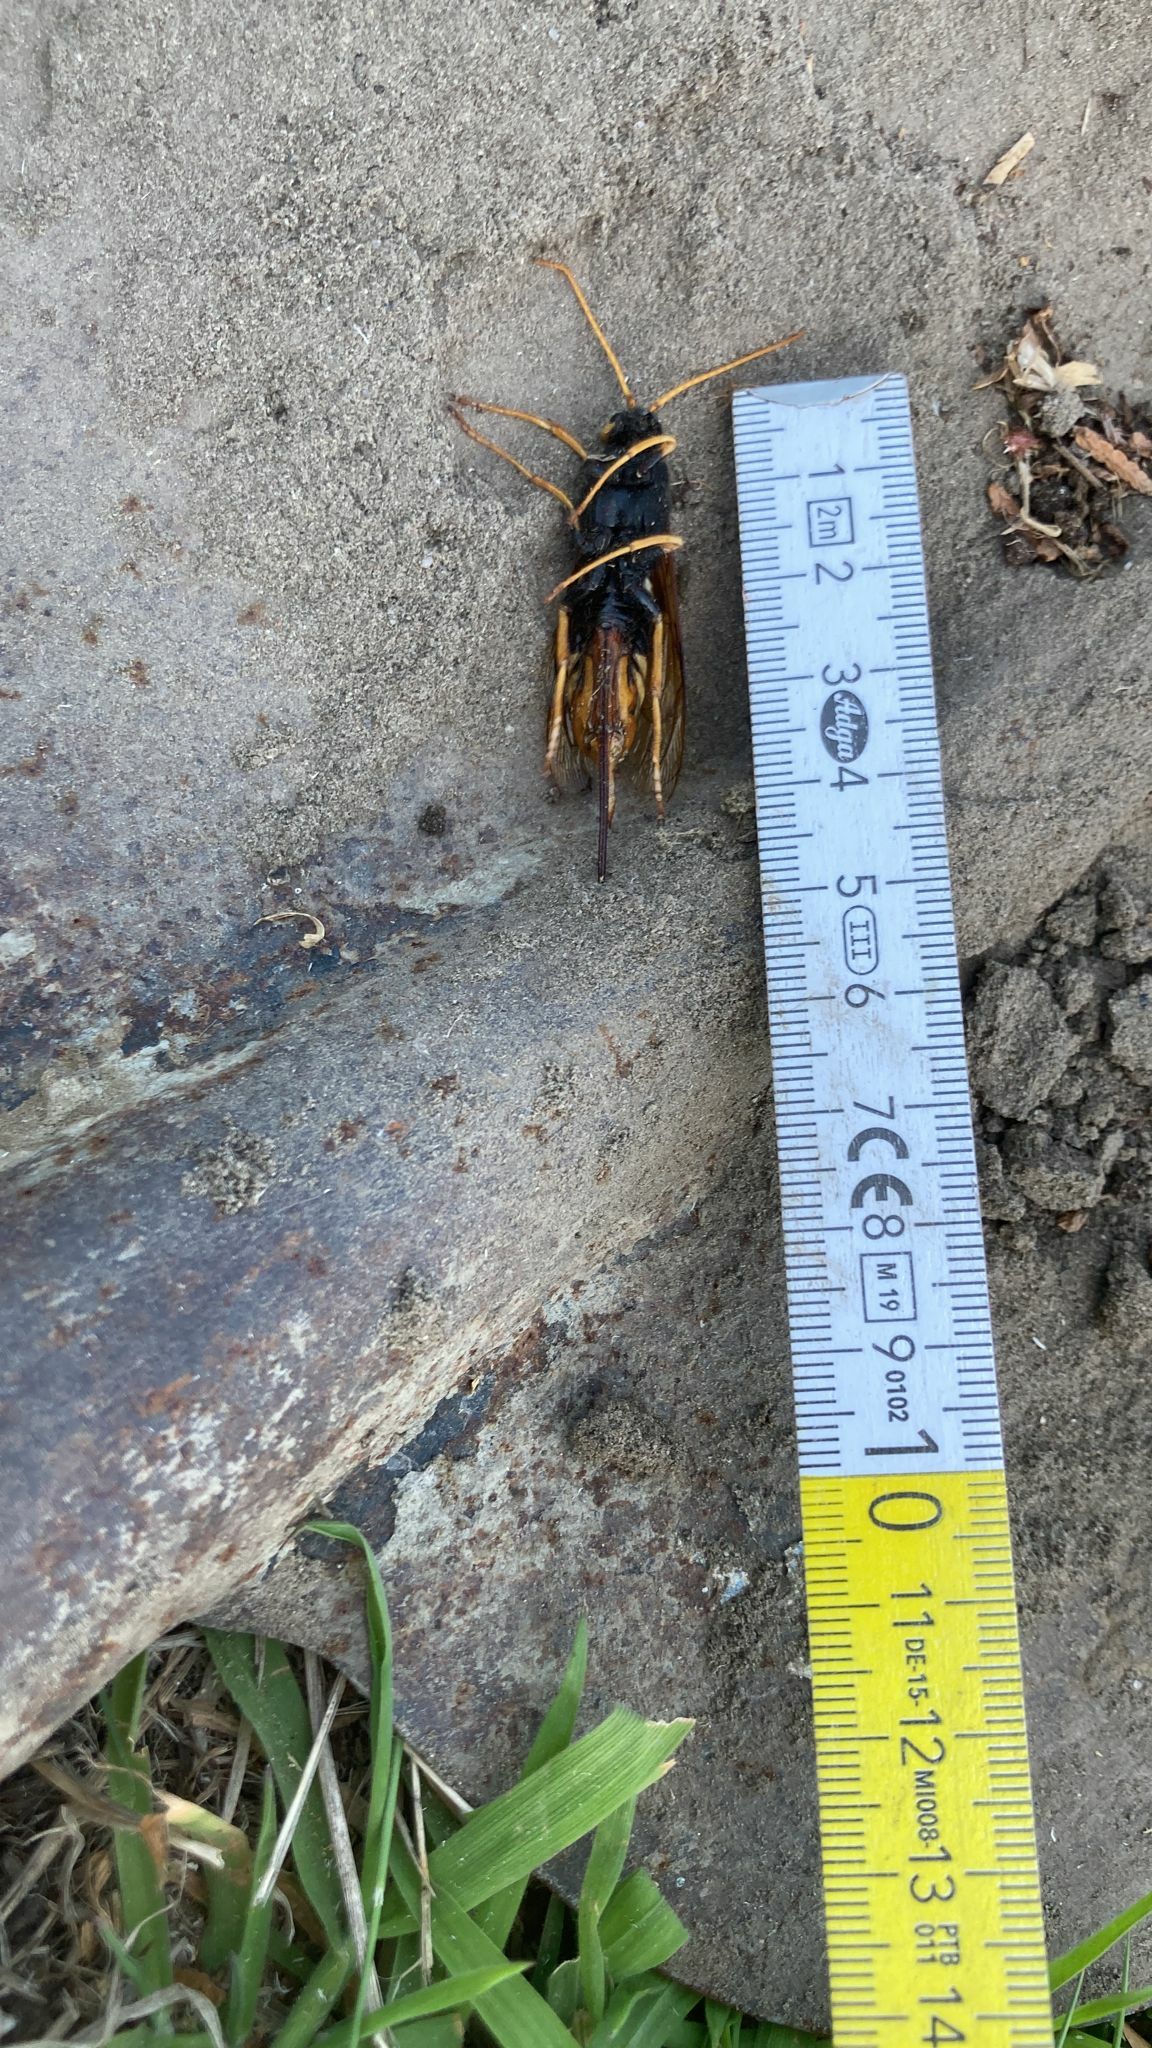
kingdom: Animalia
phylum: Arthropoda
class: Insecta
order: Hymenoptera
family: Siricidae
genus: Urocerus
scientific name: Urocerus gigas
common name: Giant woodwasp
